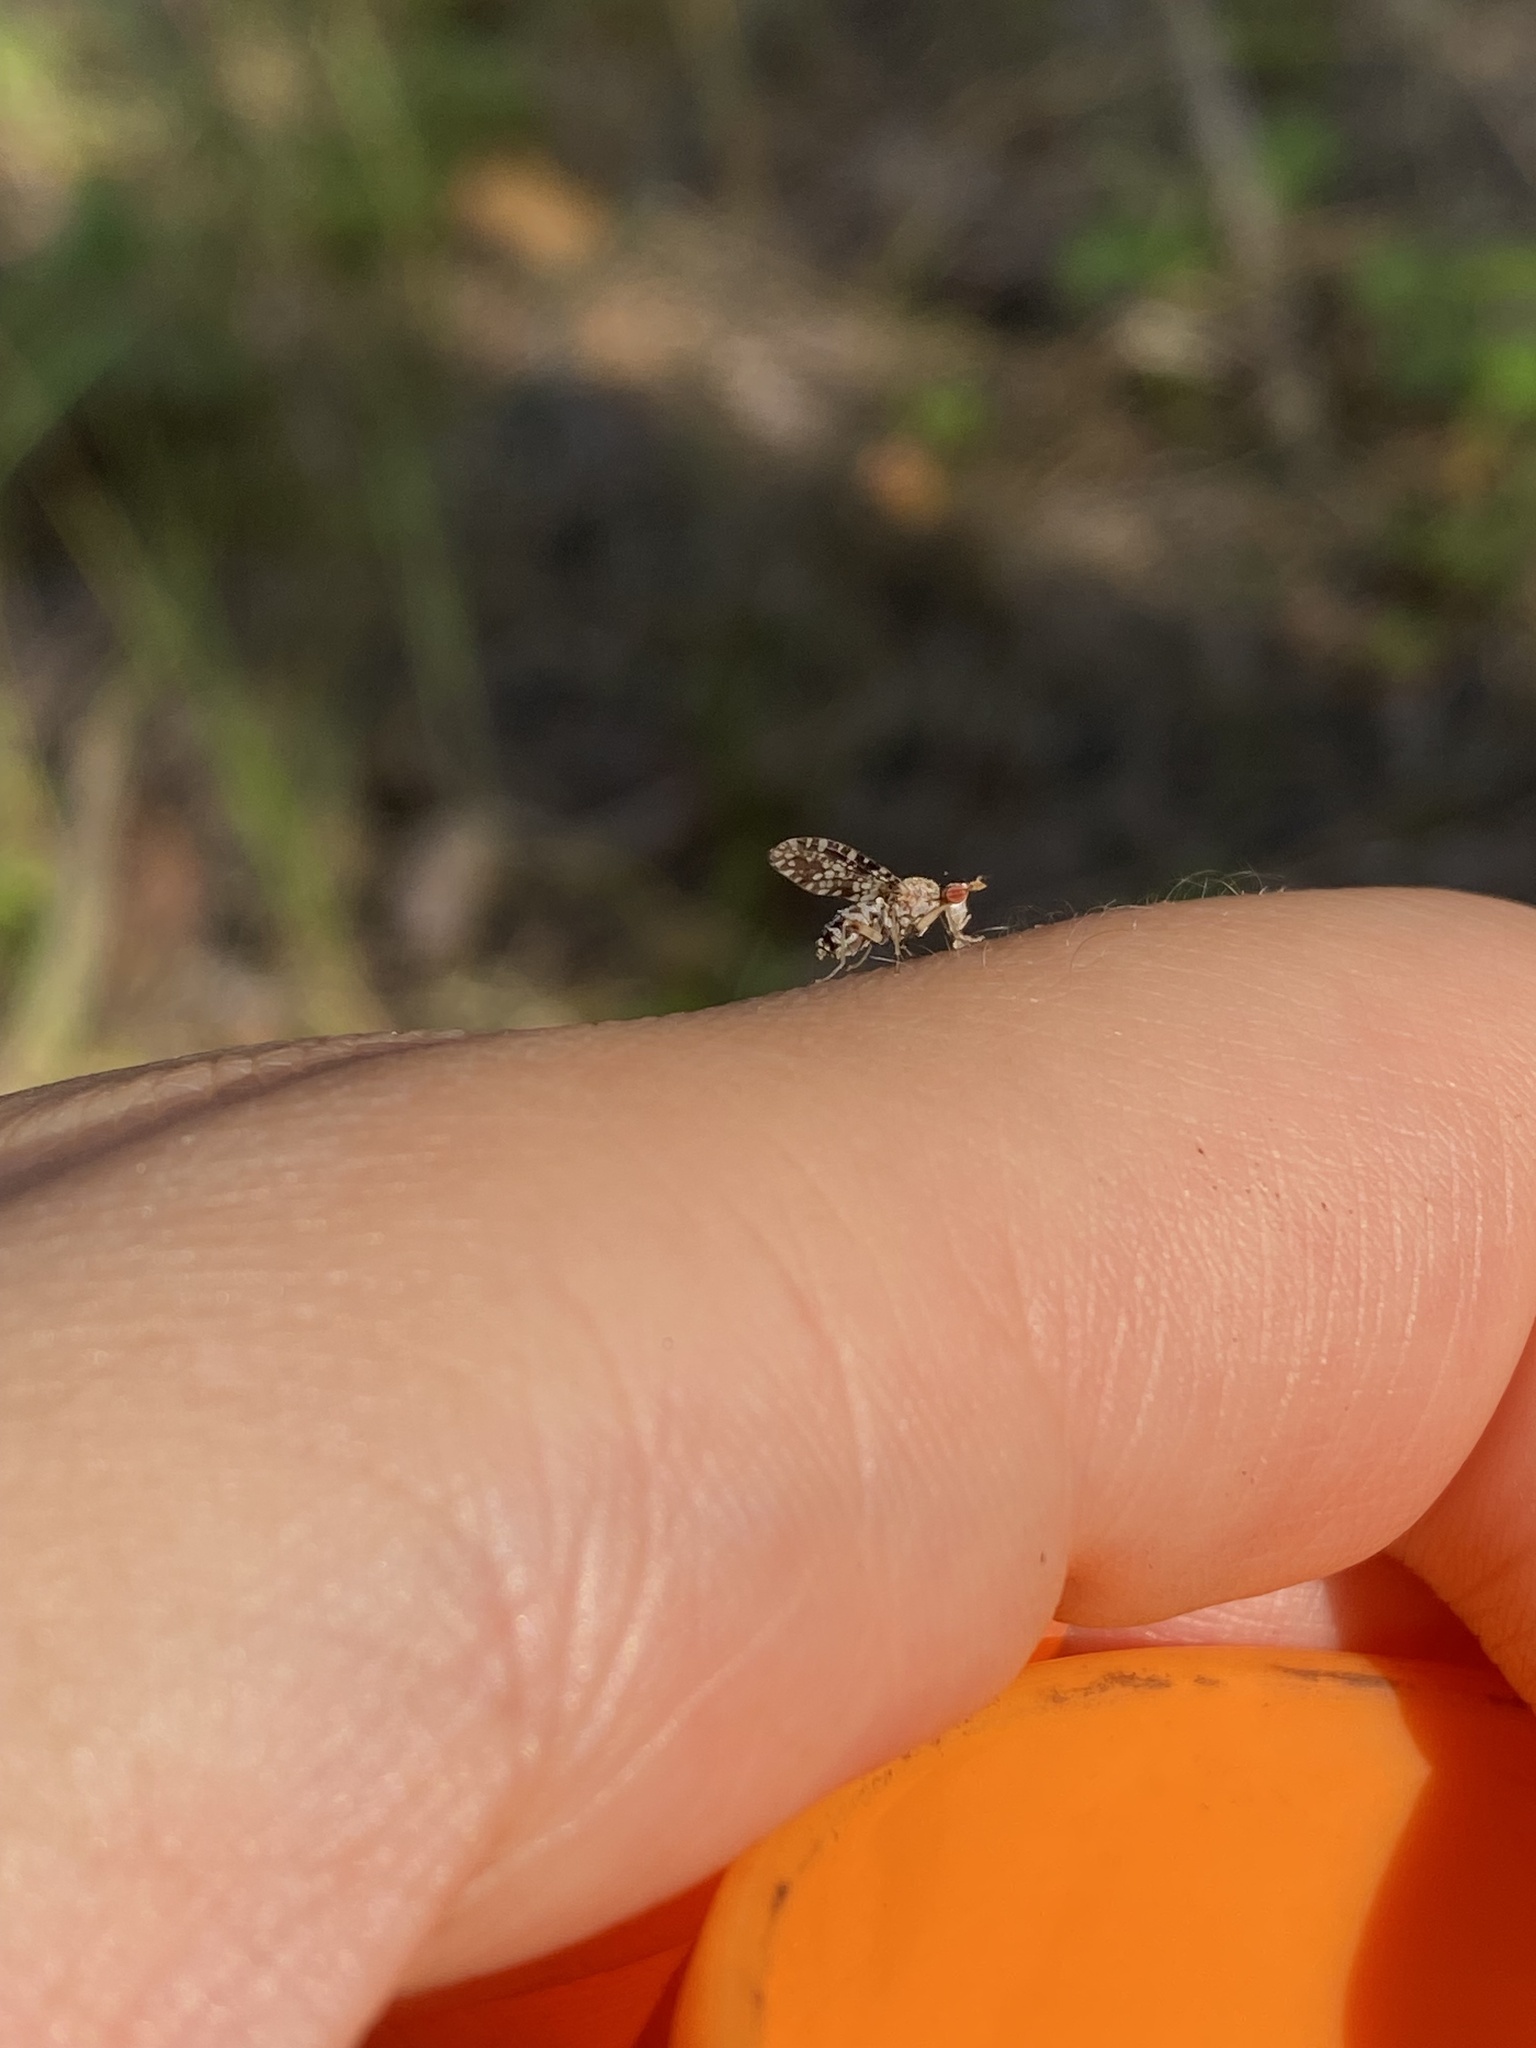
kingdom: Animalia
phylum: Arthropoda
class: Insecta
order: Diptera
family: Sciomyzidae
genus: Trypetoptera
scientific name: Trypetoptera punctulata
